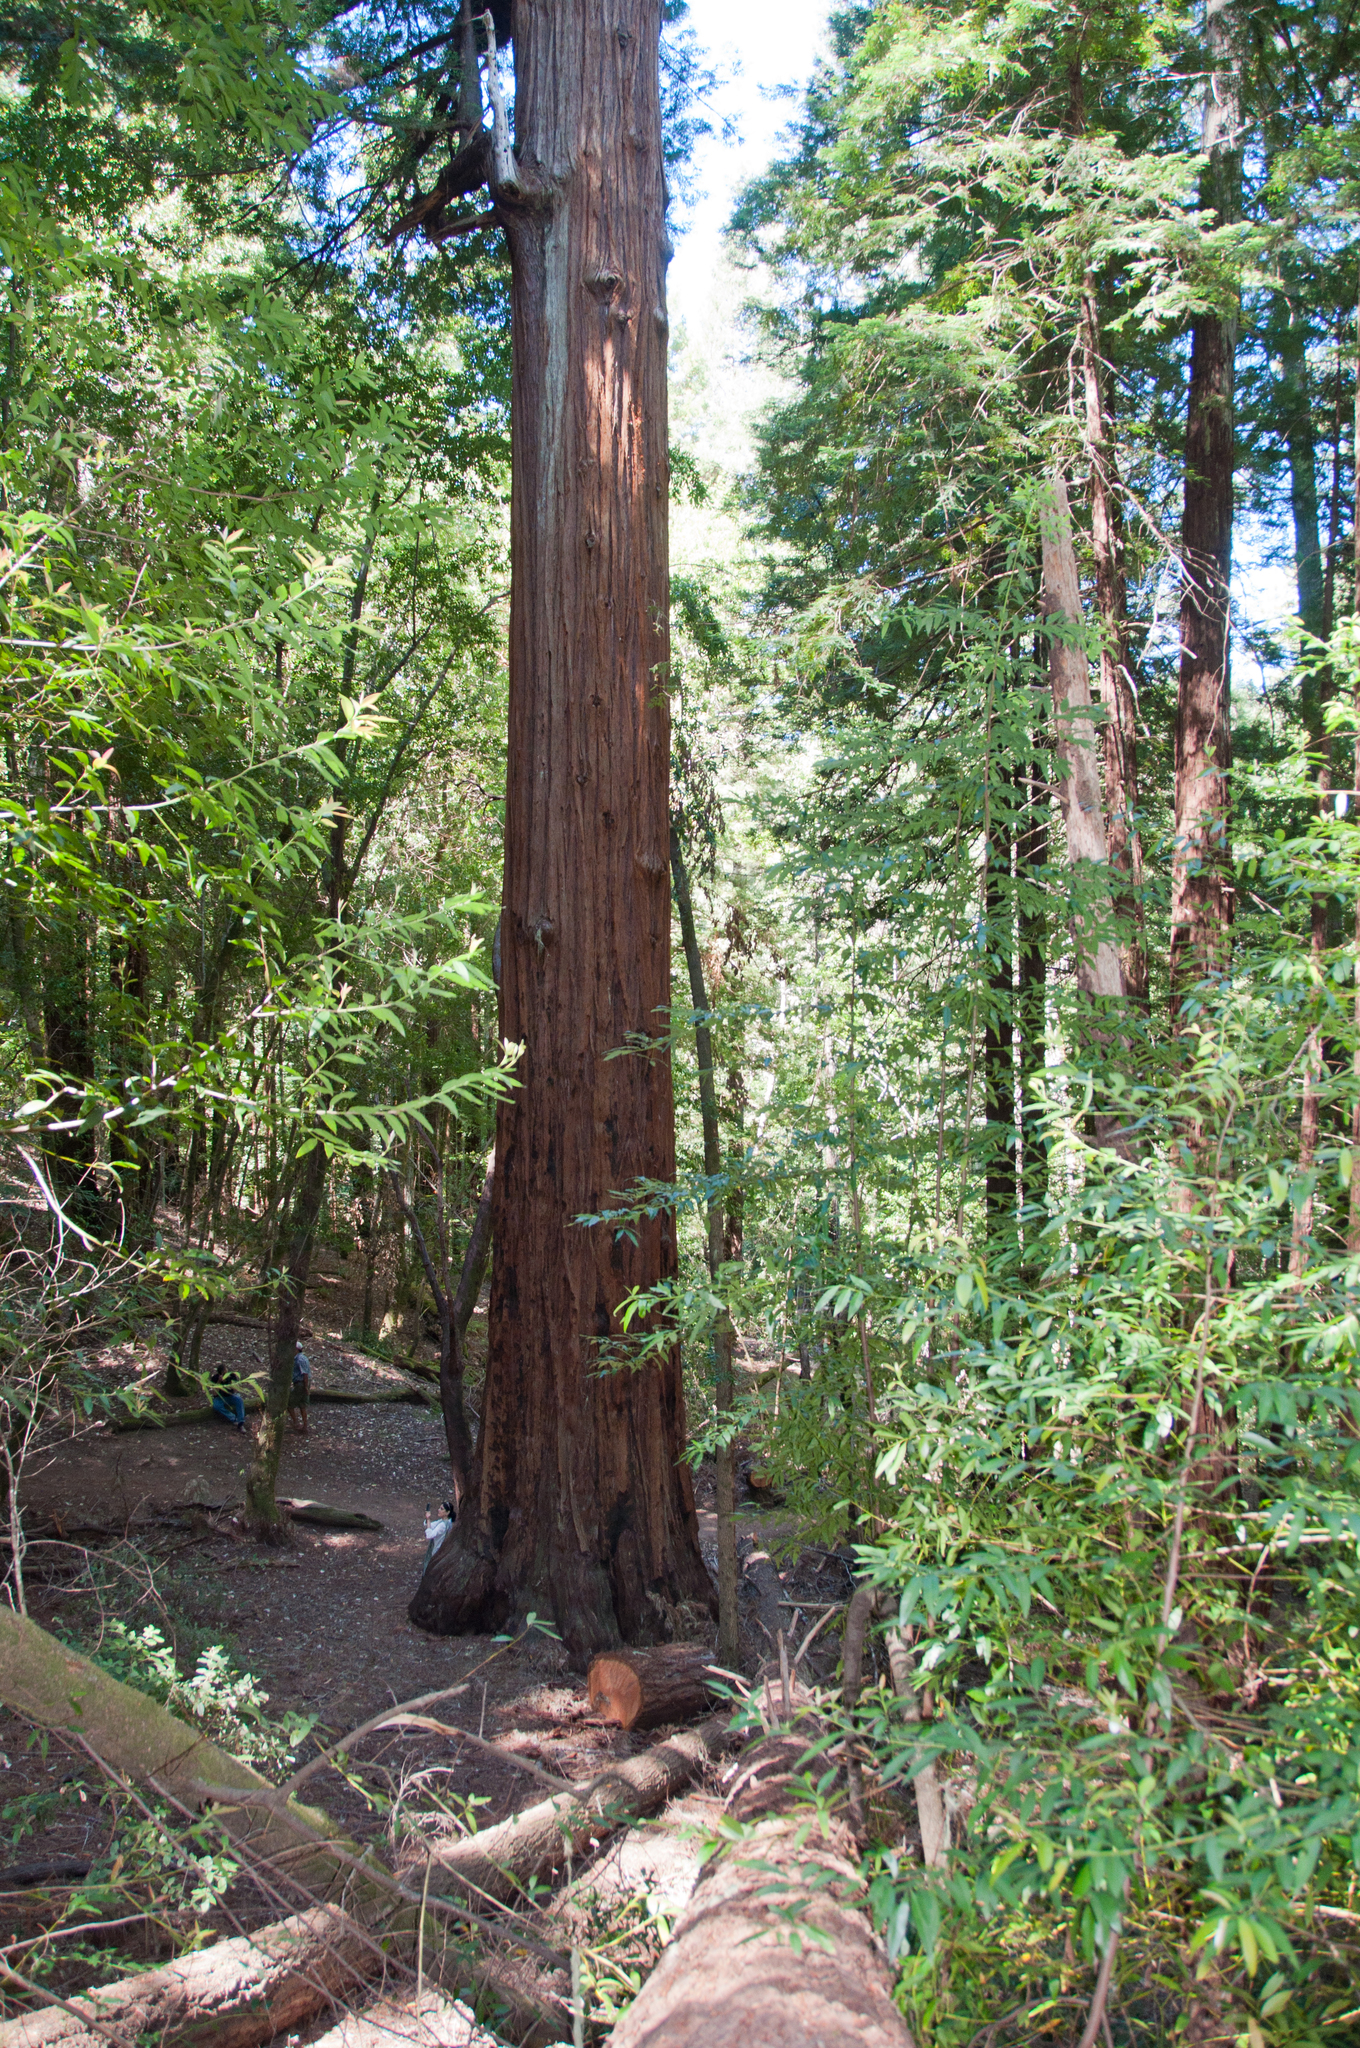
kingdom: Plantae
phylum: Tracheophyta
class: Pinopsida
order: Pinales
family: Cupressaceae
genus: Sequoia
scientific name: Sequoia sempervirens
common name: Coast redwood
